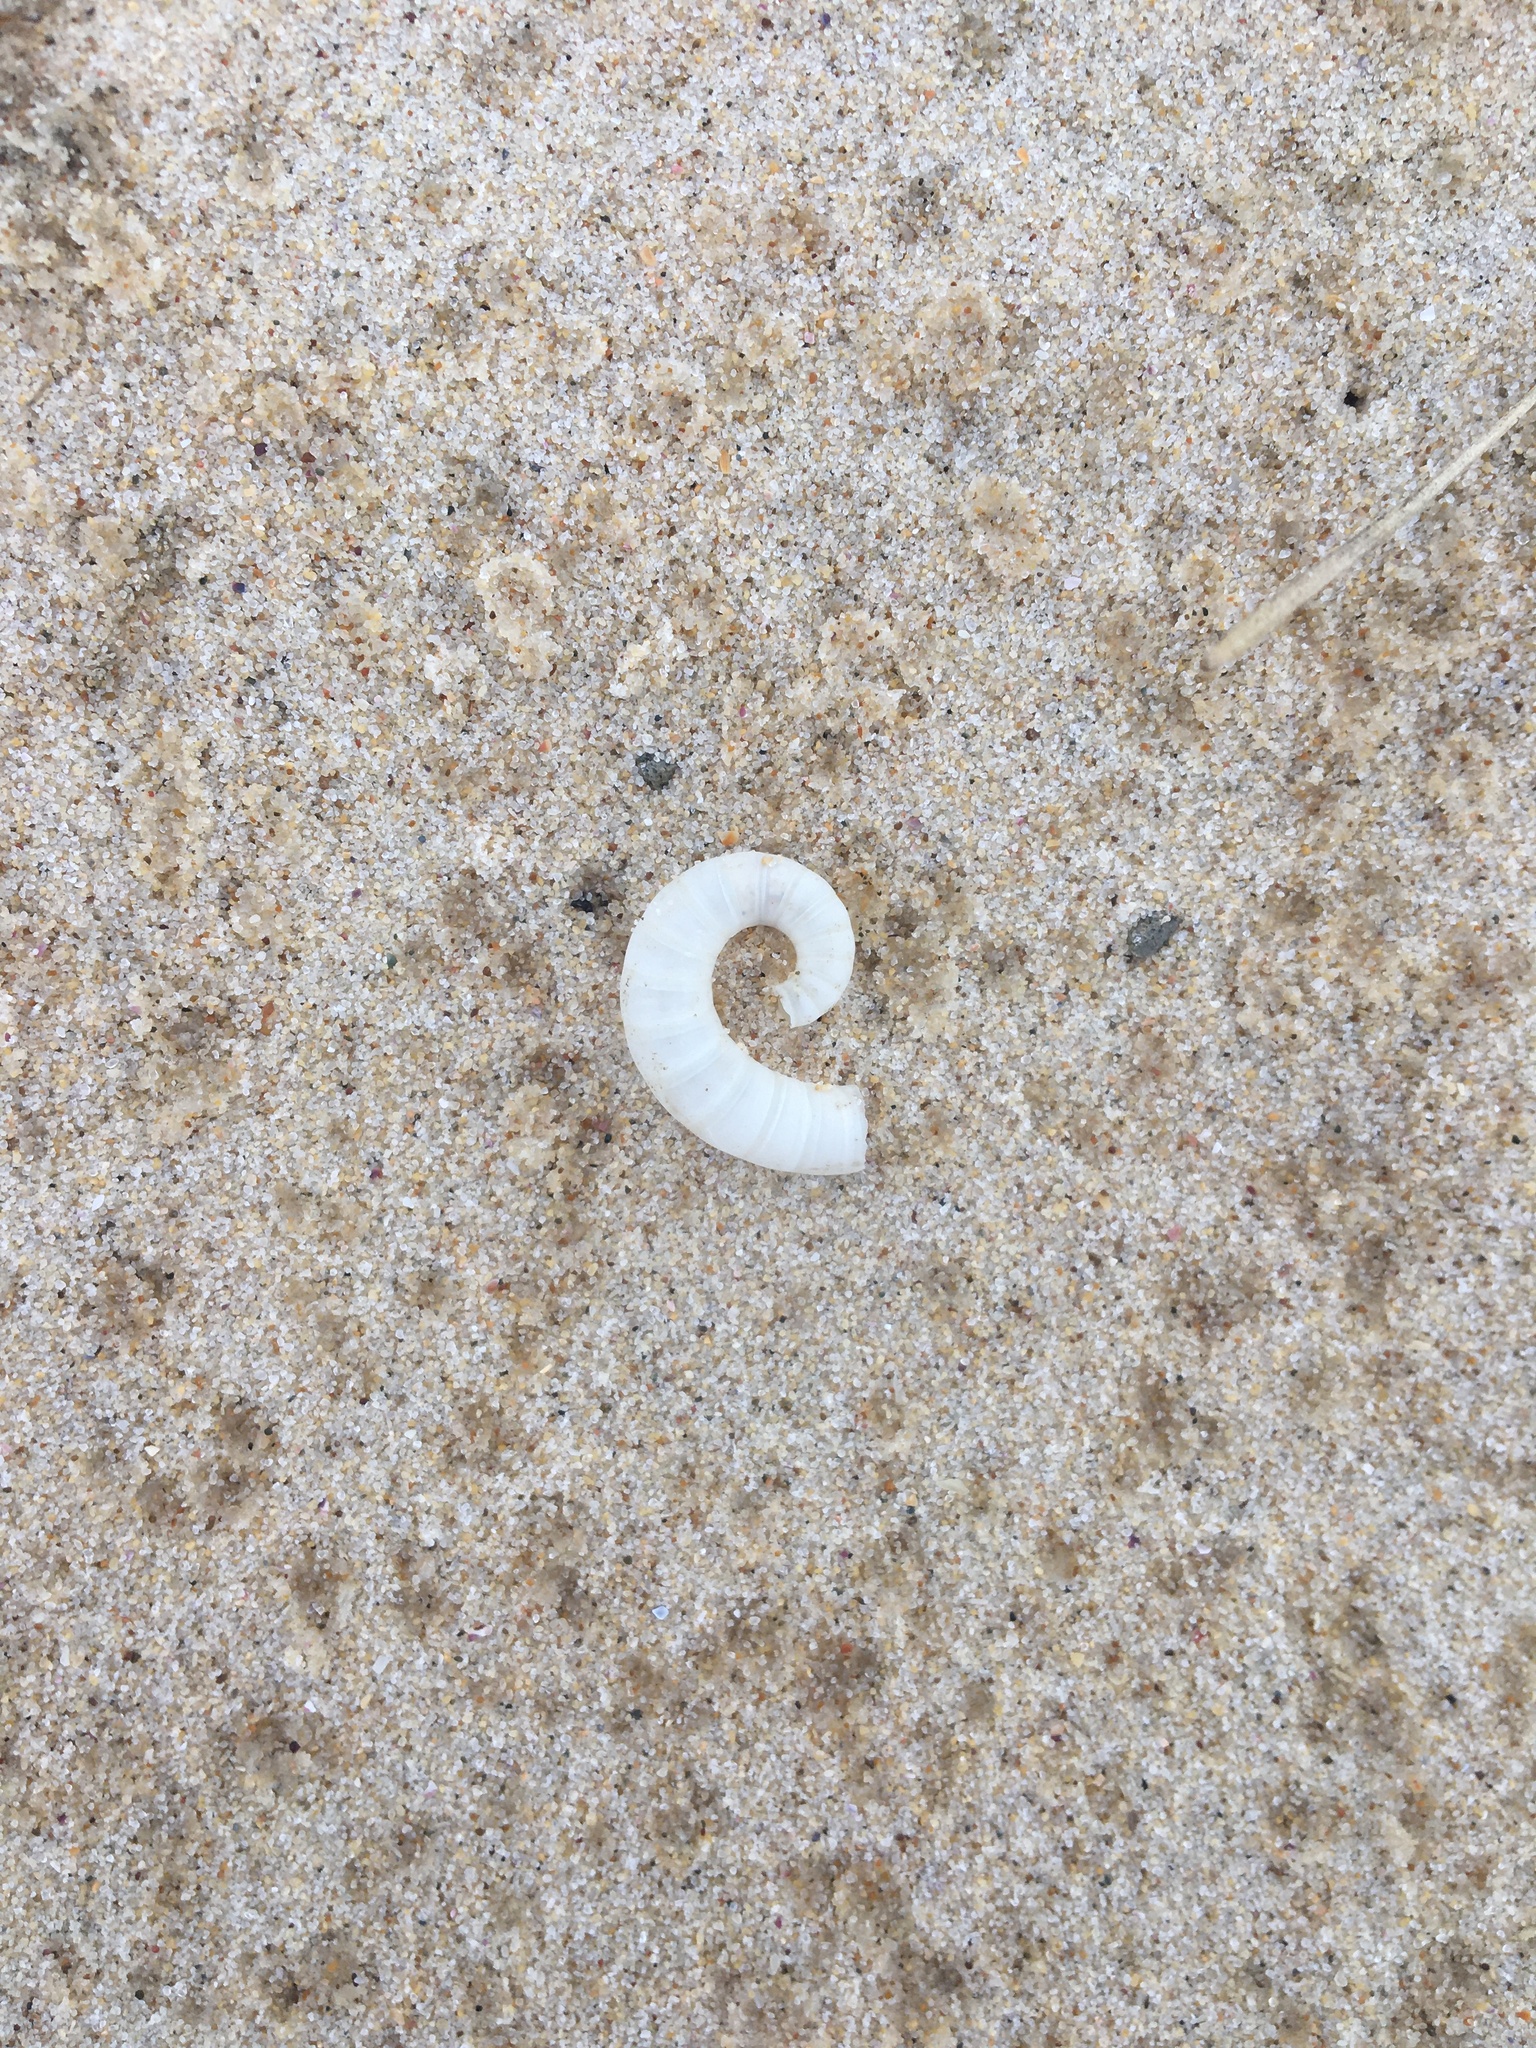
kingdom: Animalia
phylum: Mollusca
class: Cephalopoda
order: Spirulida
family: Spirulidae
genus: Spirula
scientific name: Spirula spirula
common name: Ram's horn squid
